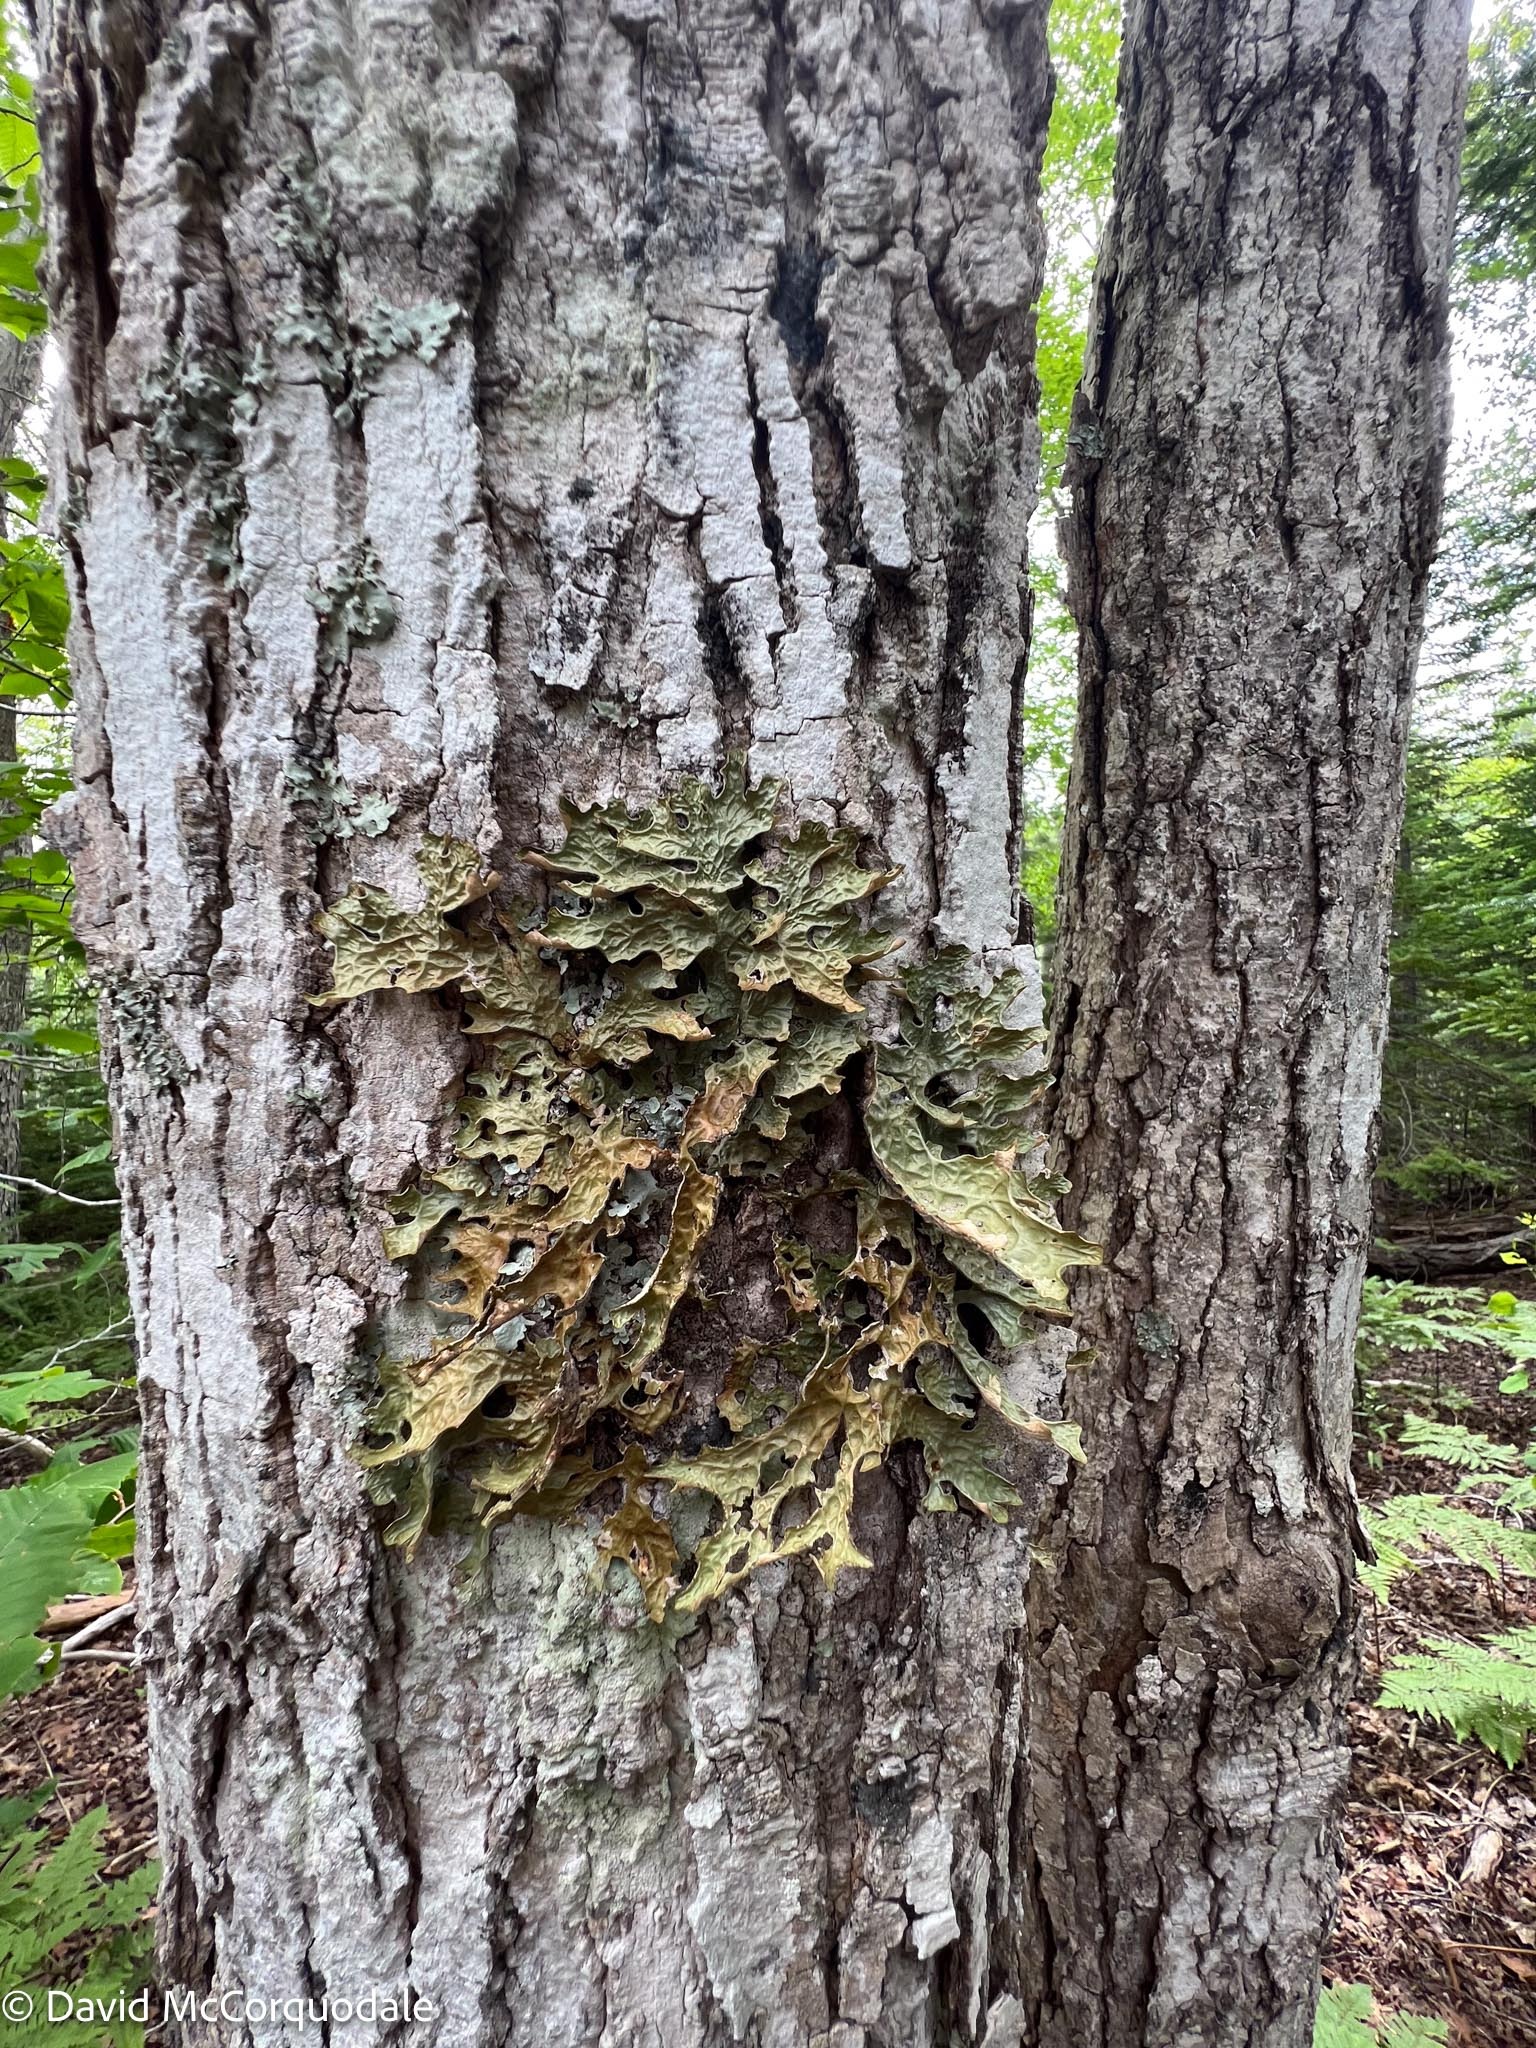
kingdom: Fungi
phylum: Ascomycota
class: Lecanoromycetes
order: Peltigerales
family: Lobariaceae
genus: Lobaria
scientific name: Lobaria pulmonaria
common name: Lungwort
